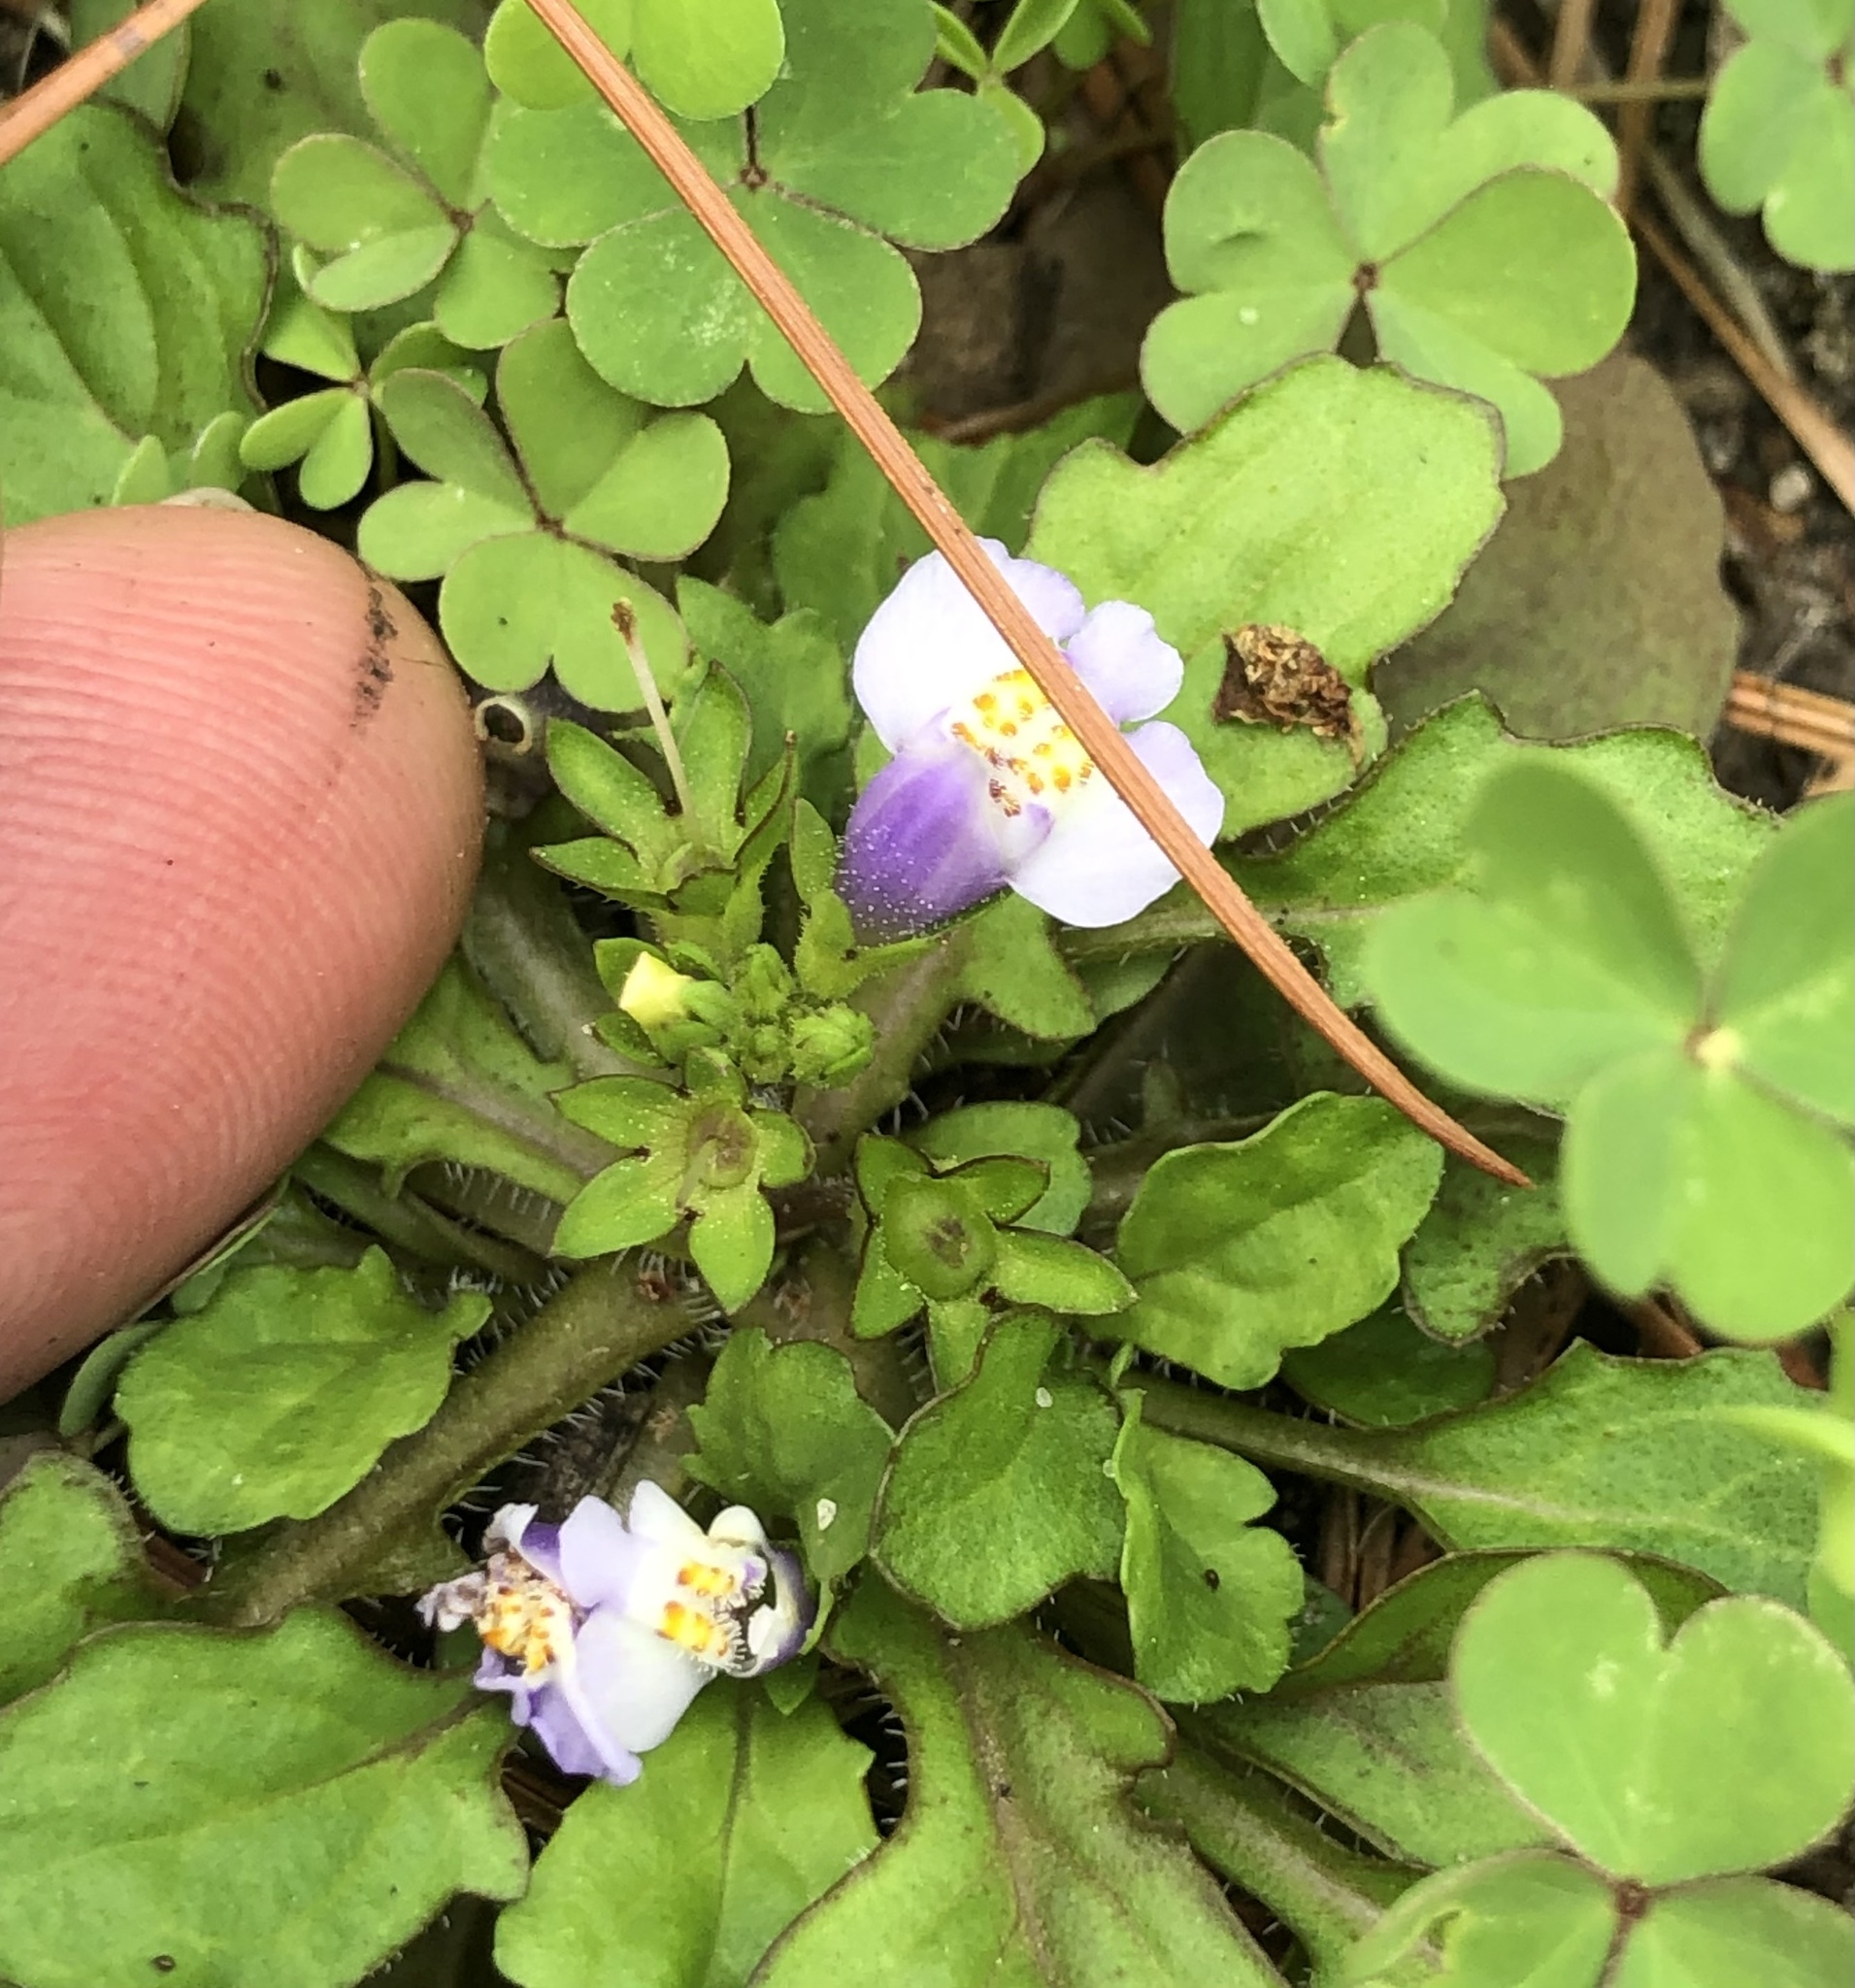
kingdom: Plantae
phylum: Tracheophyta
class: Magnoliopsida
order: Lamiales
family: Mazaceae
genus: Mazus
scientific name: Mazus pumilus
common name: Japanese mazus
